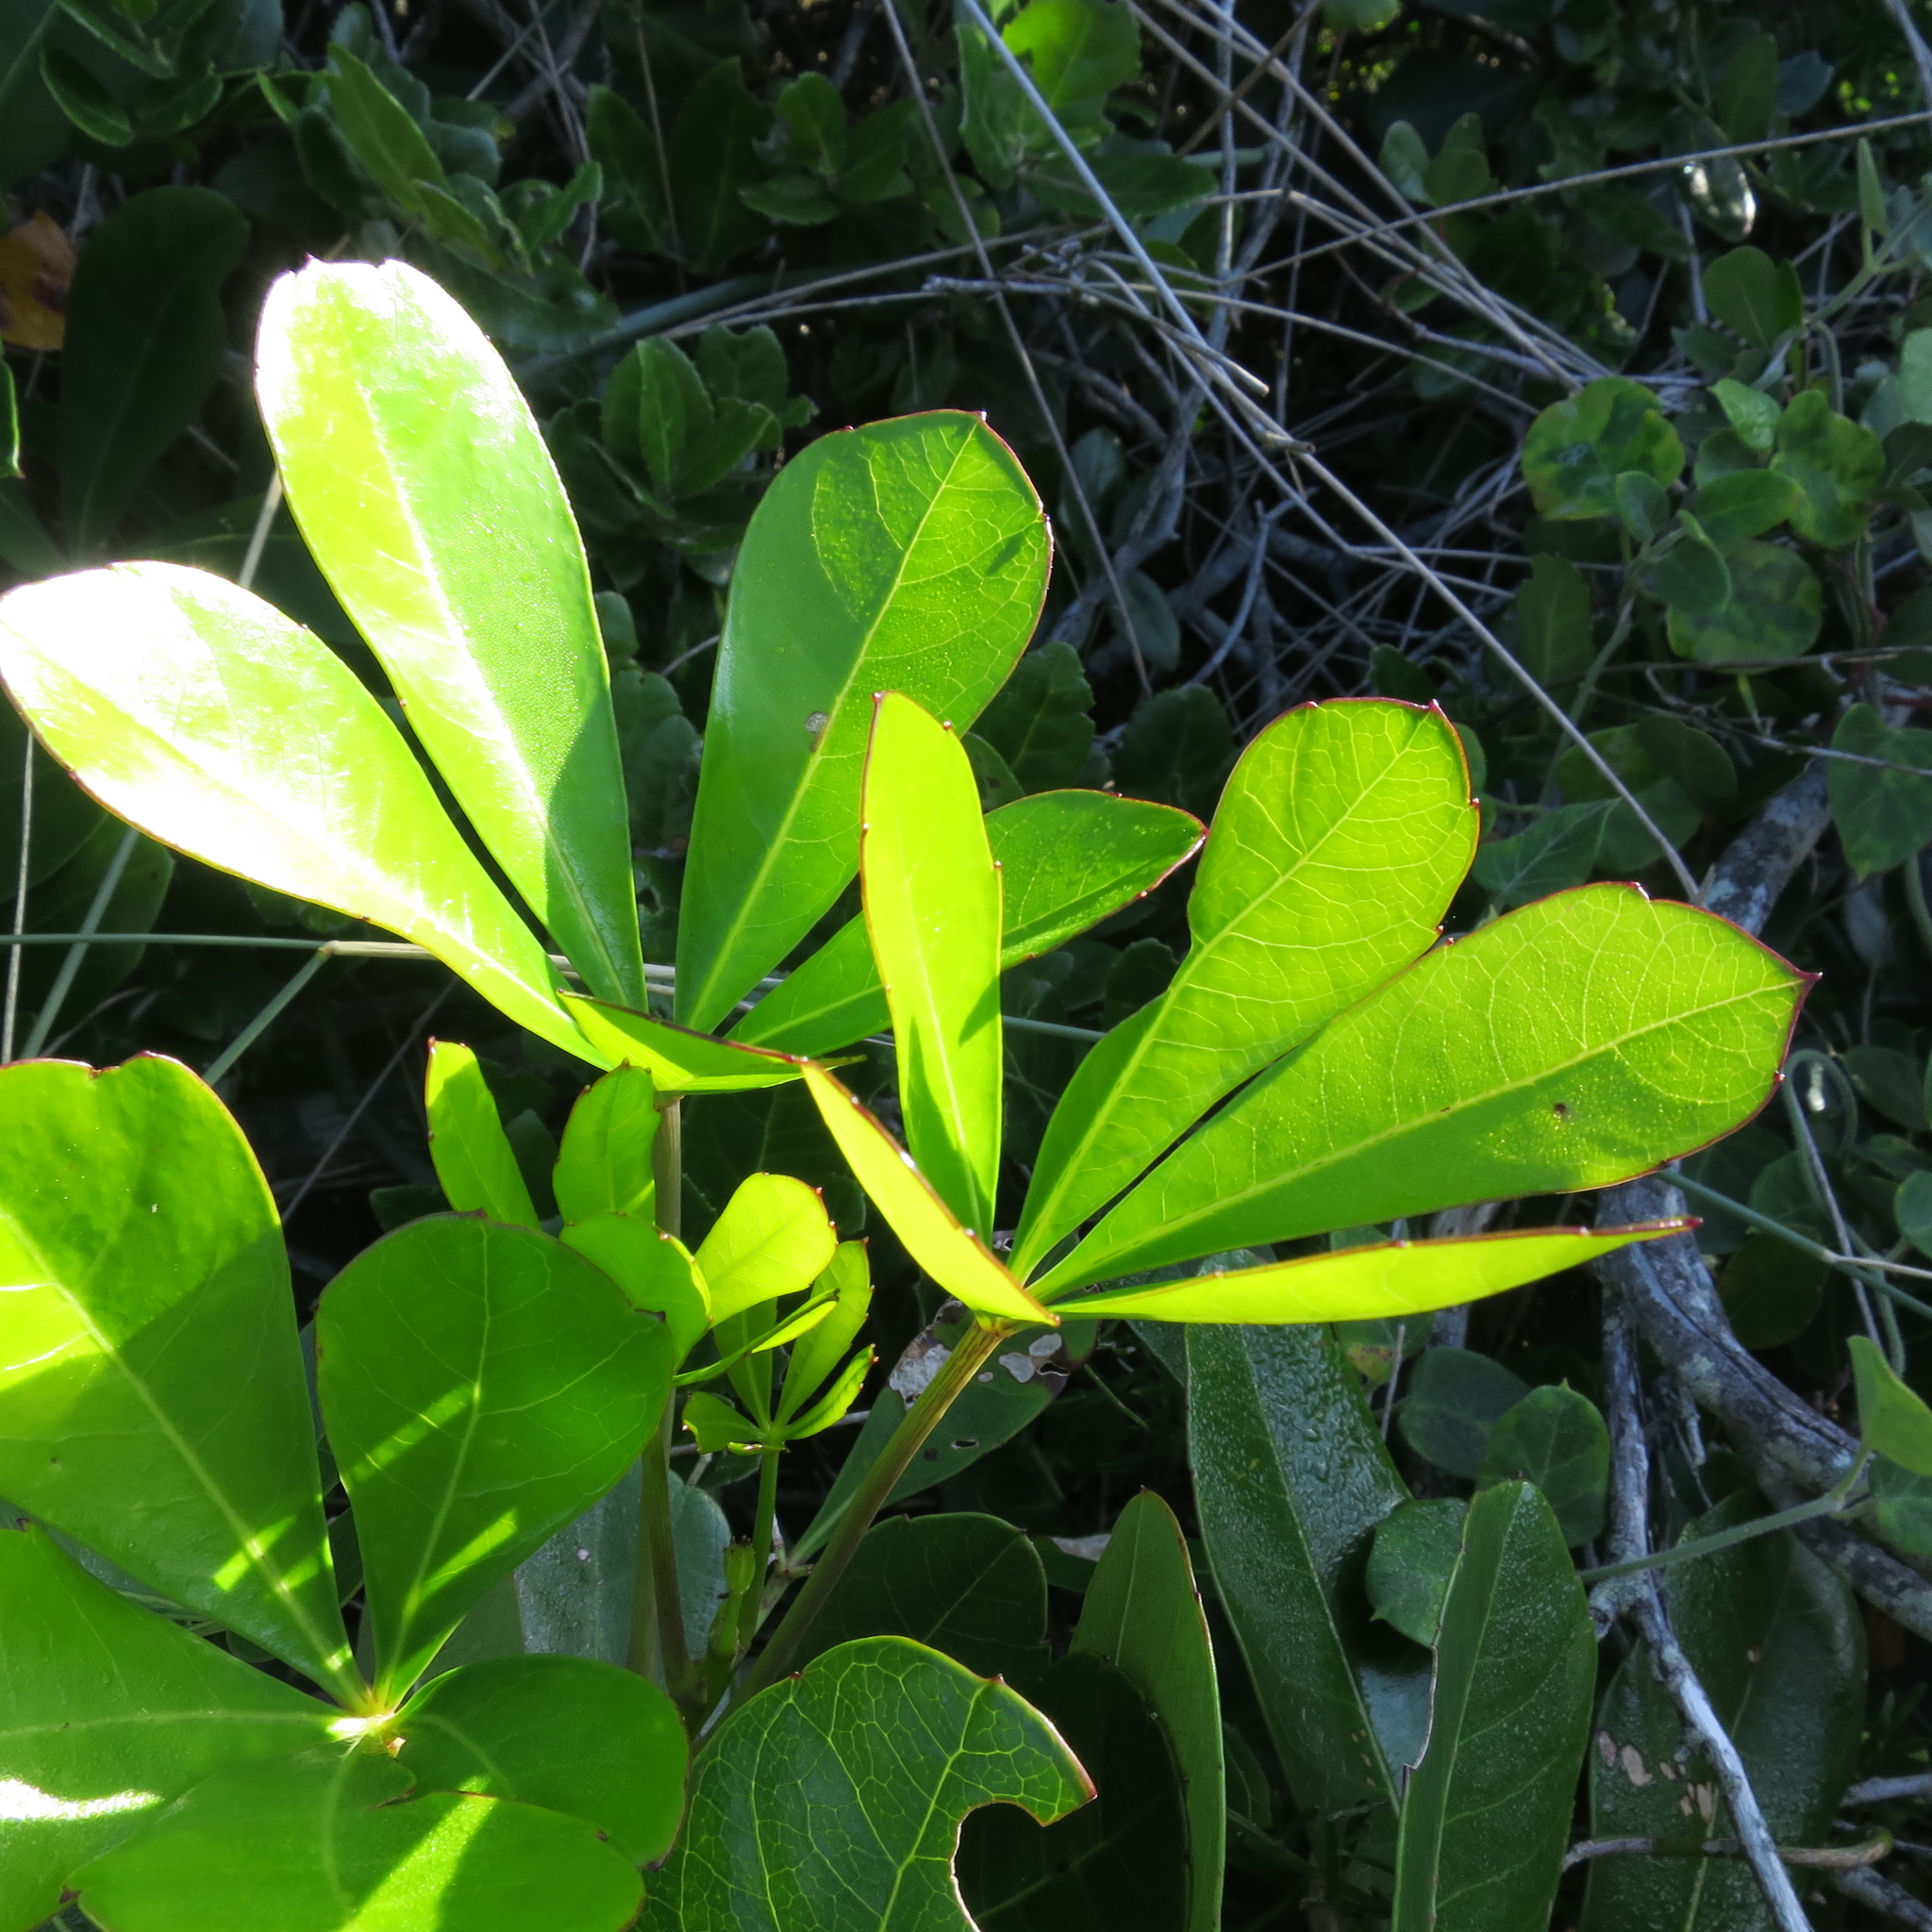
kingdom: Plantae
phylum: Tracheophyta
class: Magnoliopsida
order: Apiales
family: Araliaceae
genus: Cussonia
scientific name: Cussonia thyrsiflora
